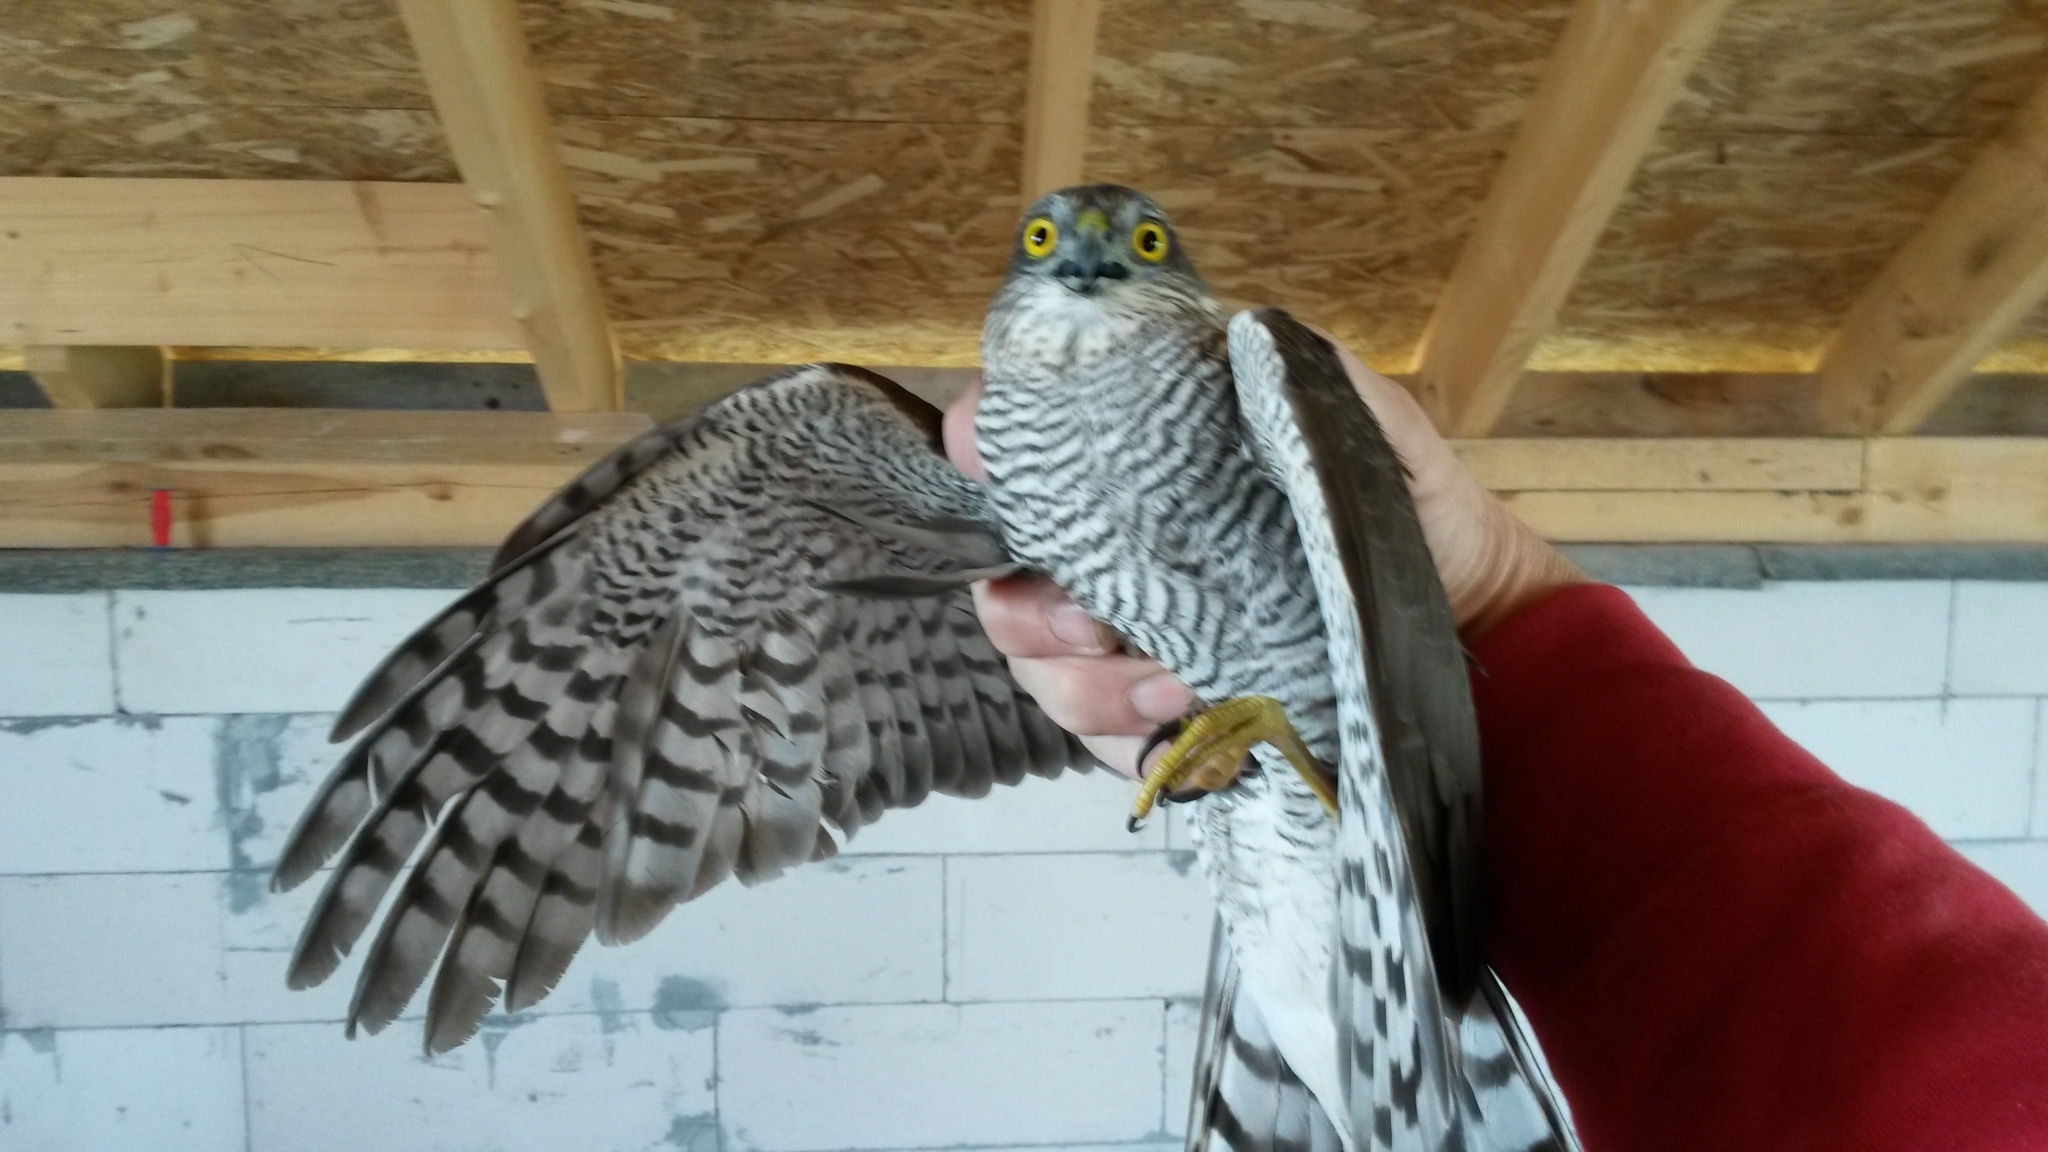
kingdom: Animalia
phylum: Chordata
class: Aves
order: Accipitriformes
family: Accipitridae
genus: Accipiter
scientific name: Accipiter nisus
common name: Eurasian sparrowhawk
